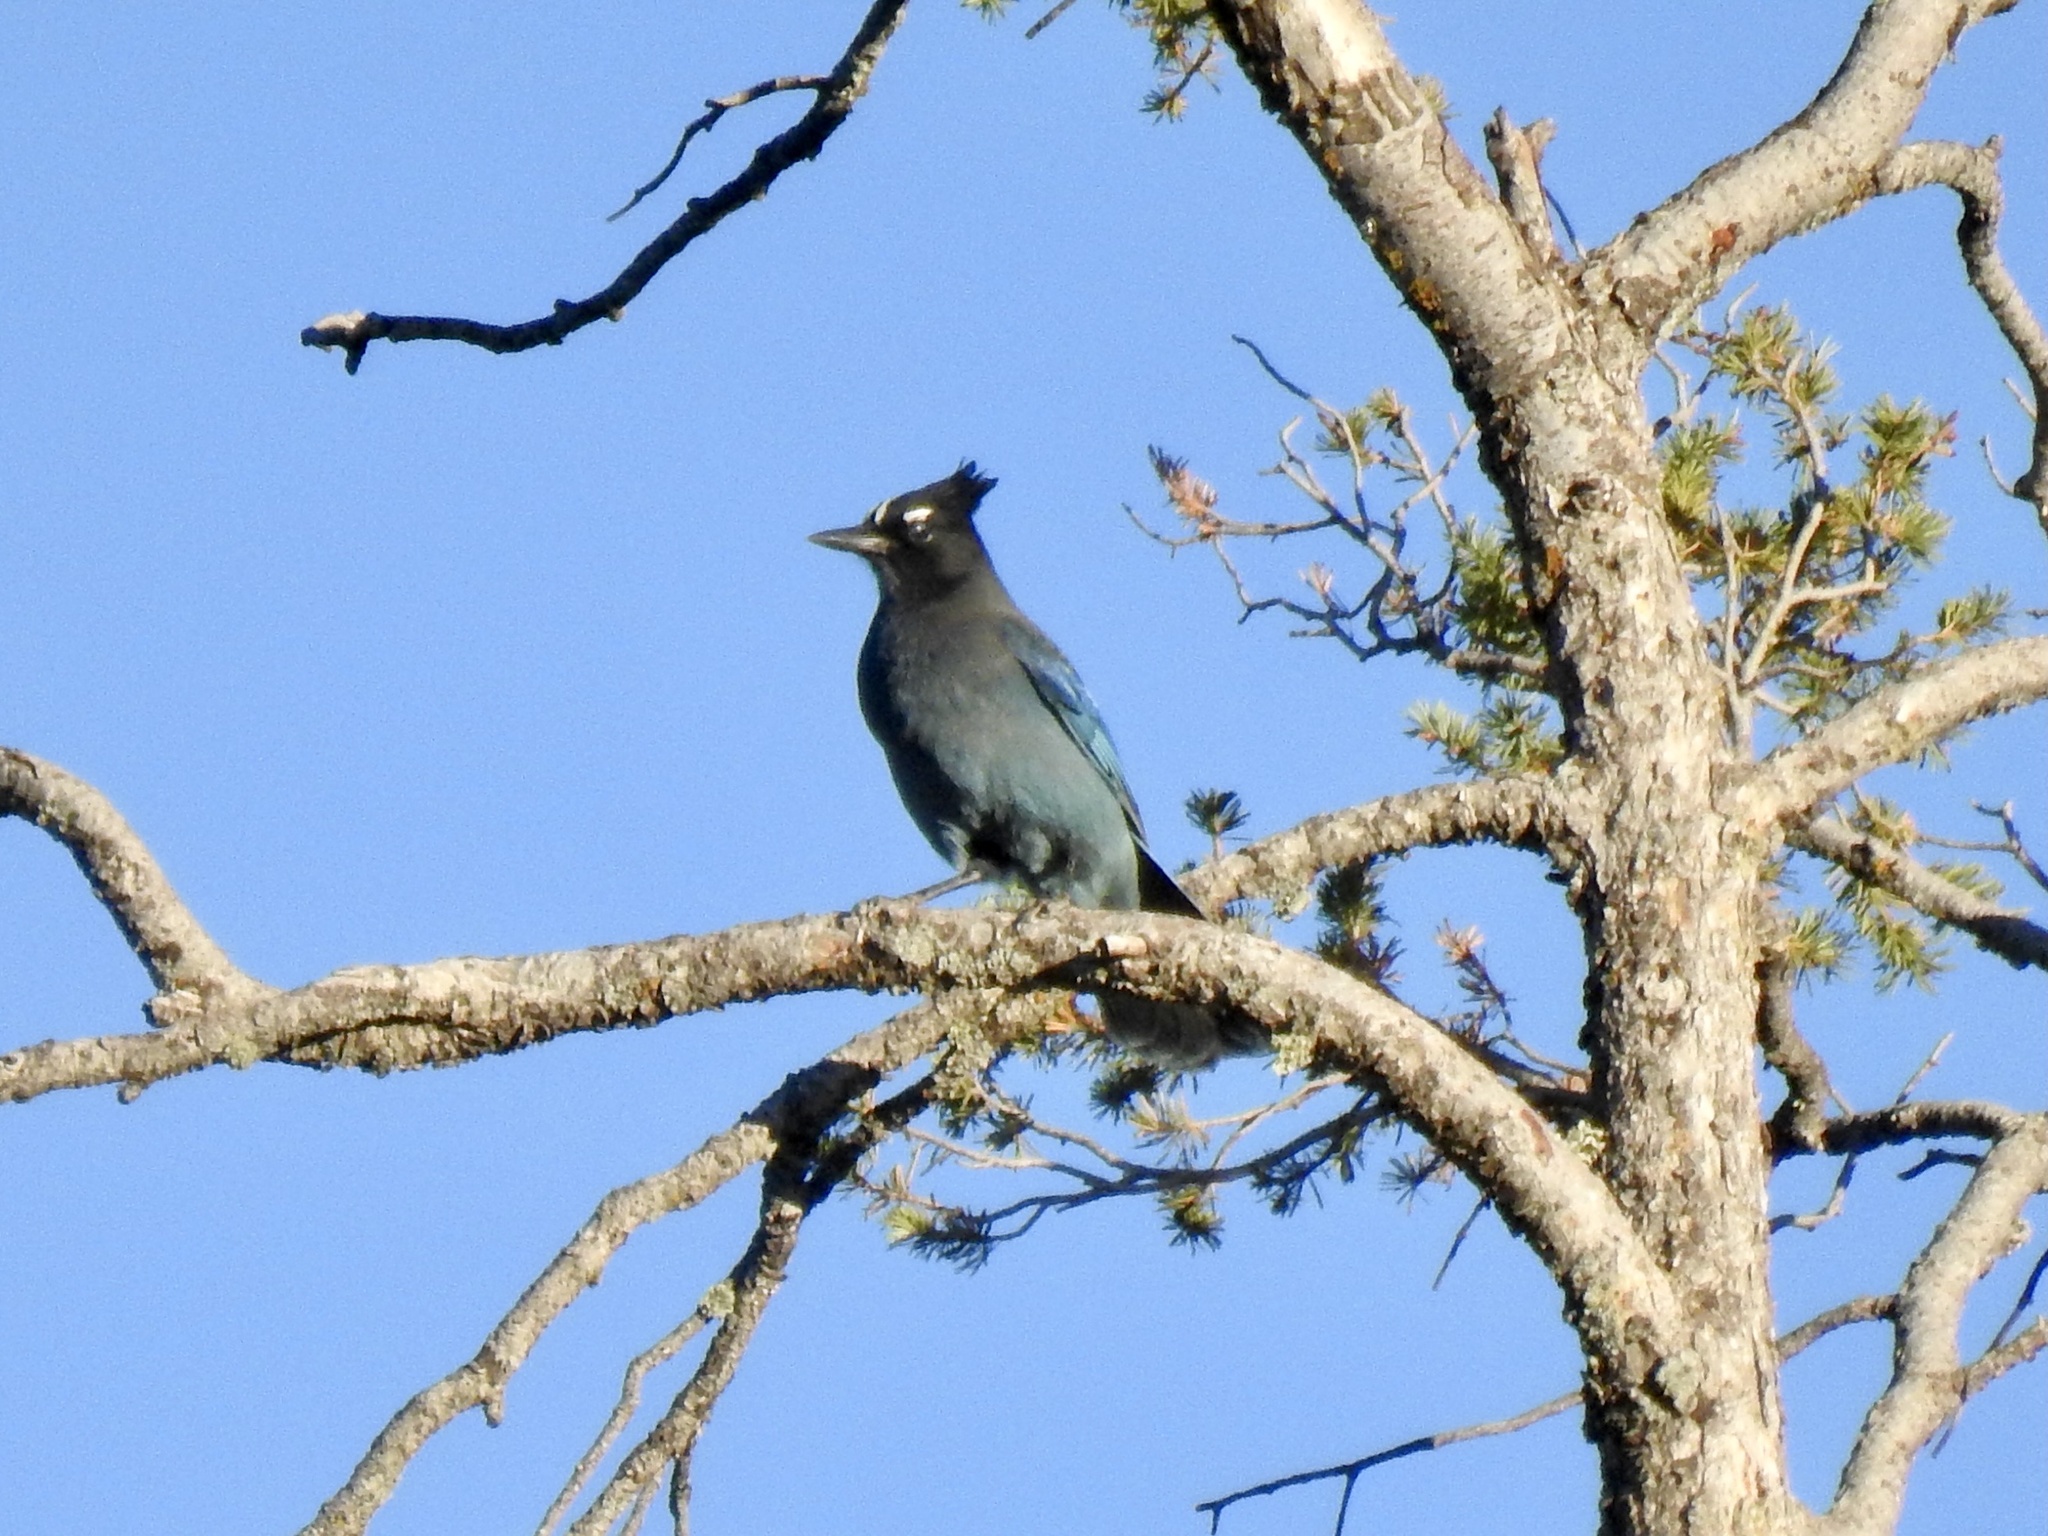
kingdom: Animalia
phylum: Chordata
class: Aves
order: Passeriformes
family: Corvidae
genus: Cyanocitta
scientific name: Cyanocitta stelleri
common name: Steller's jay
